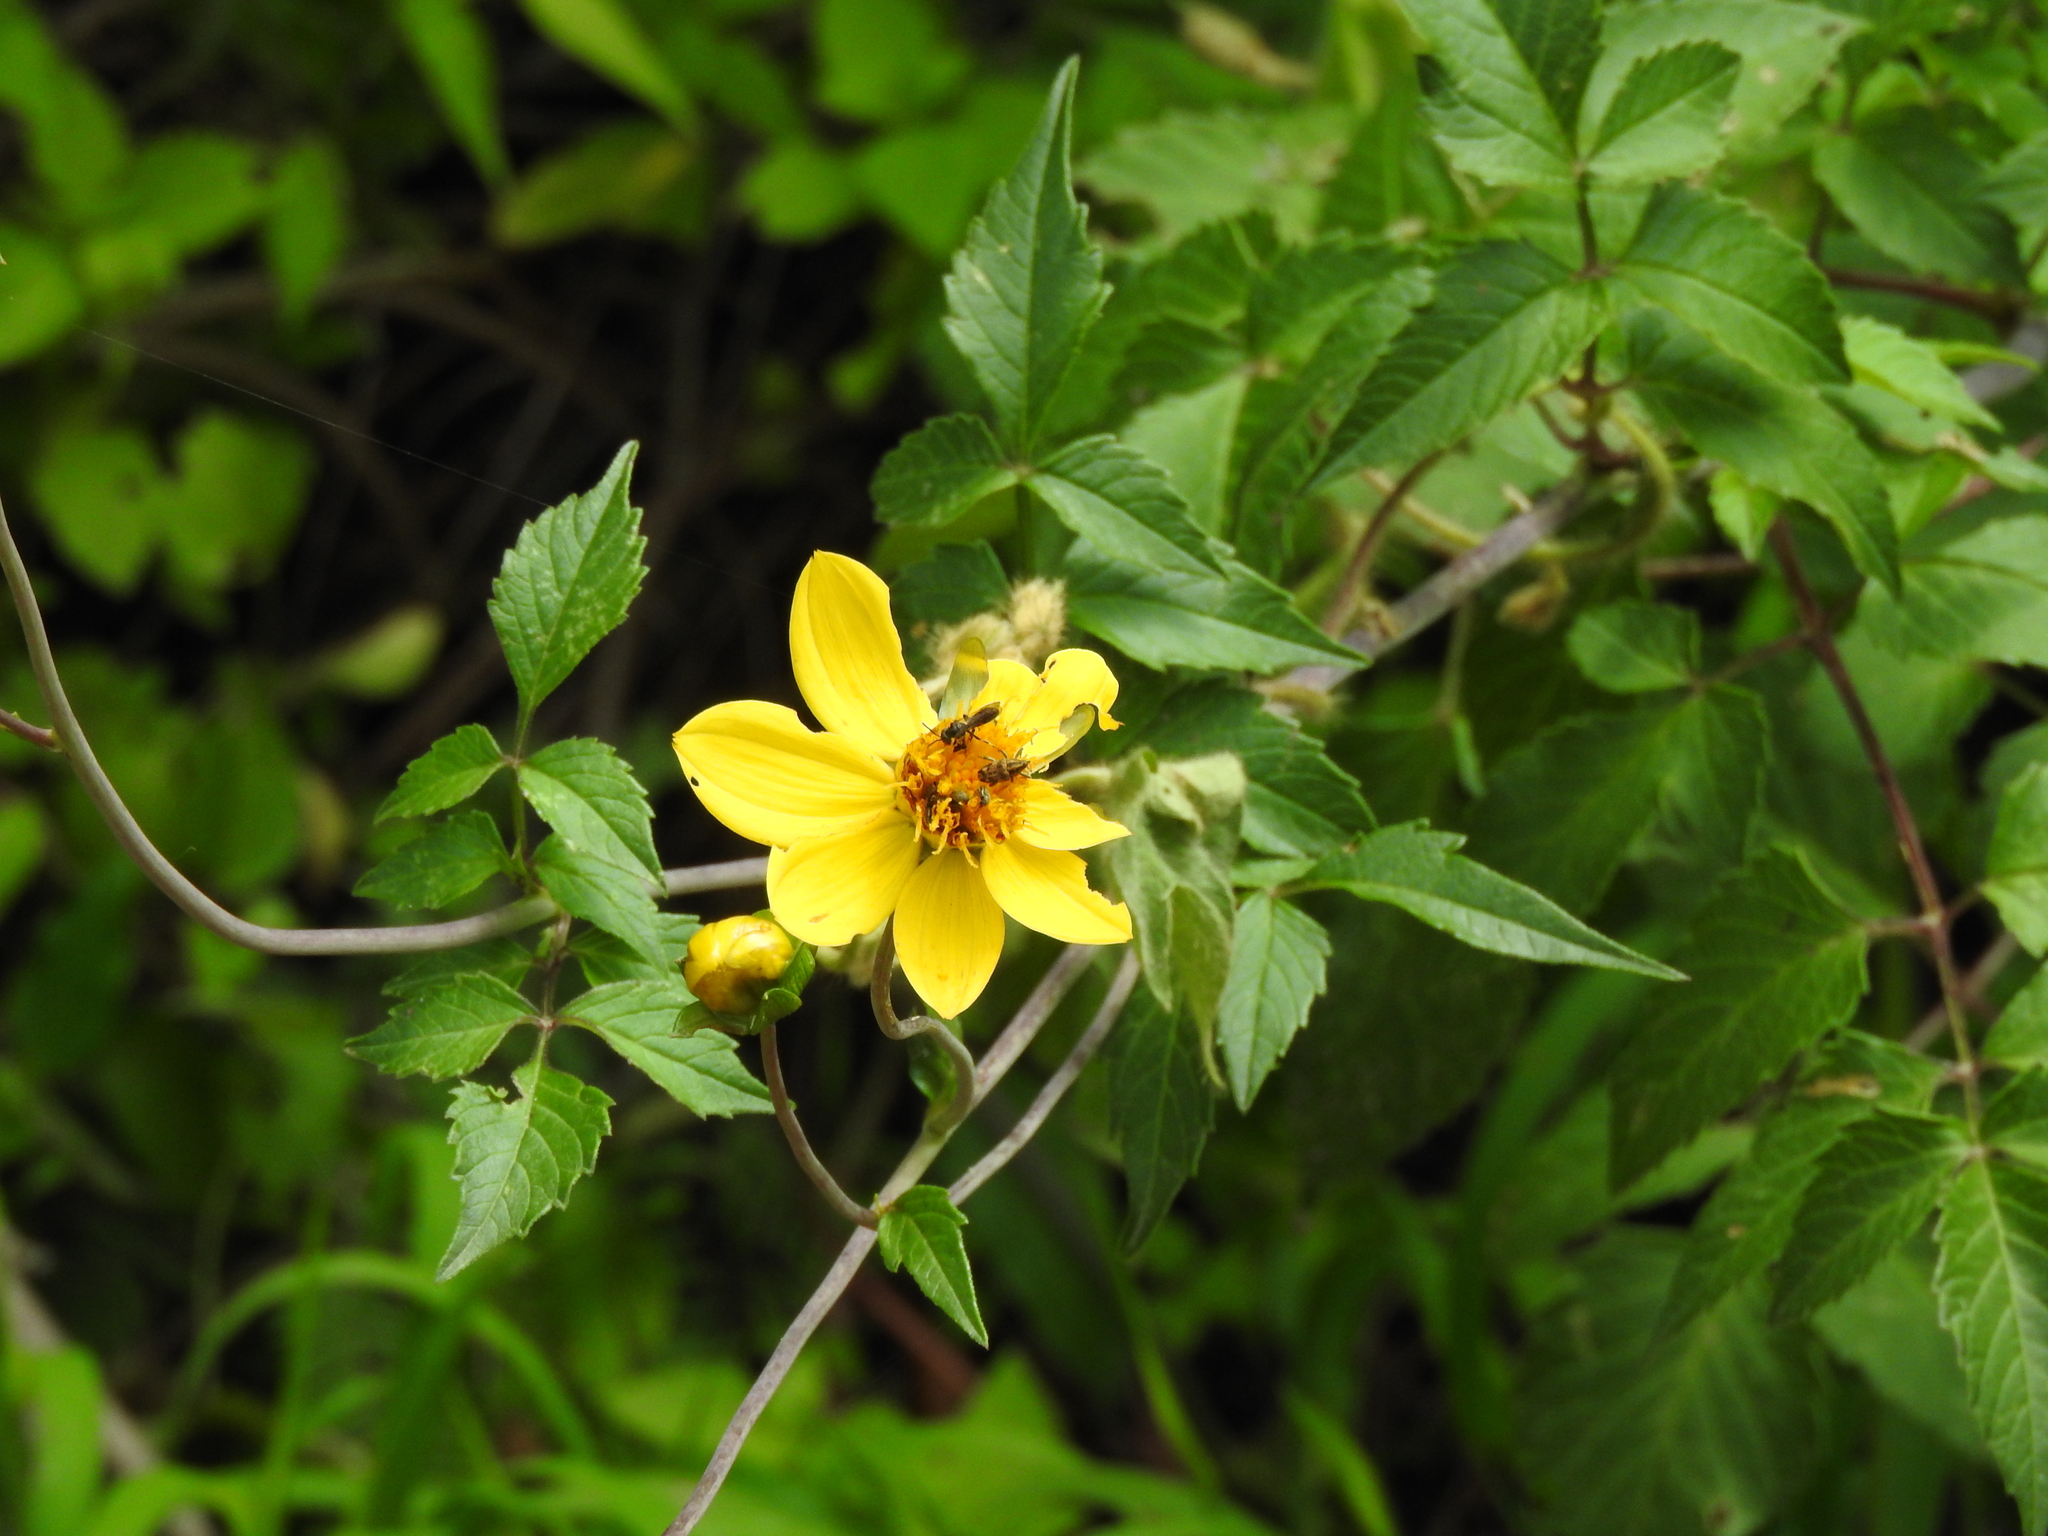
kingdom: Plantae
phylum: Tracheophyta
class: Magnoliopsida
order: Asterales
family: Asteraceae
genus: Dahlia
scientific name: Dahlia coccinea
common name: Red dahlia
